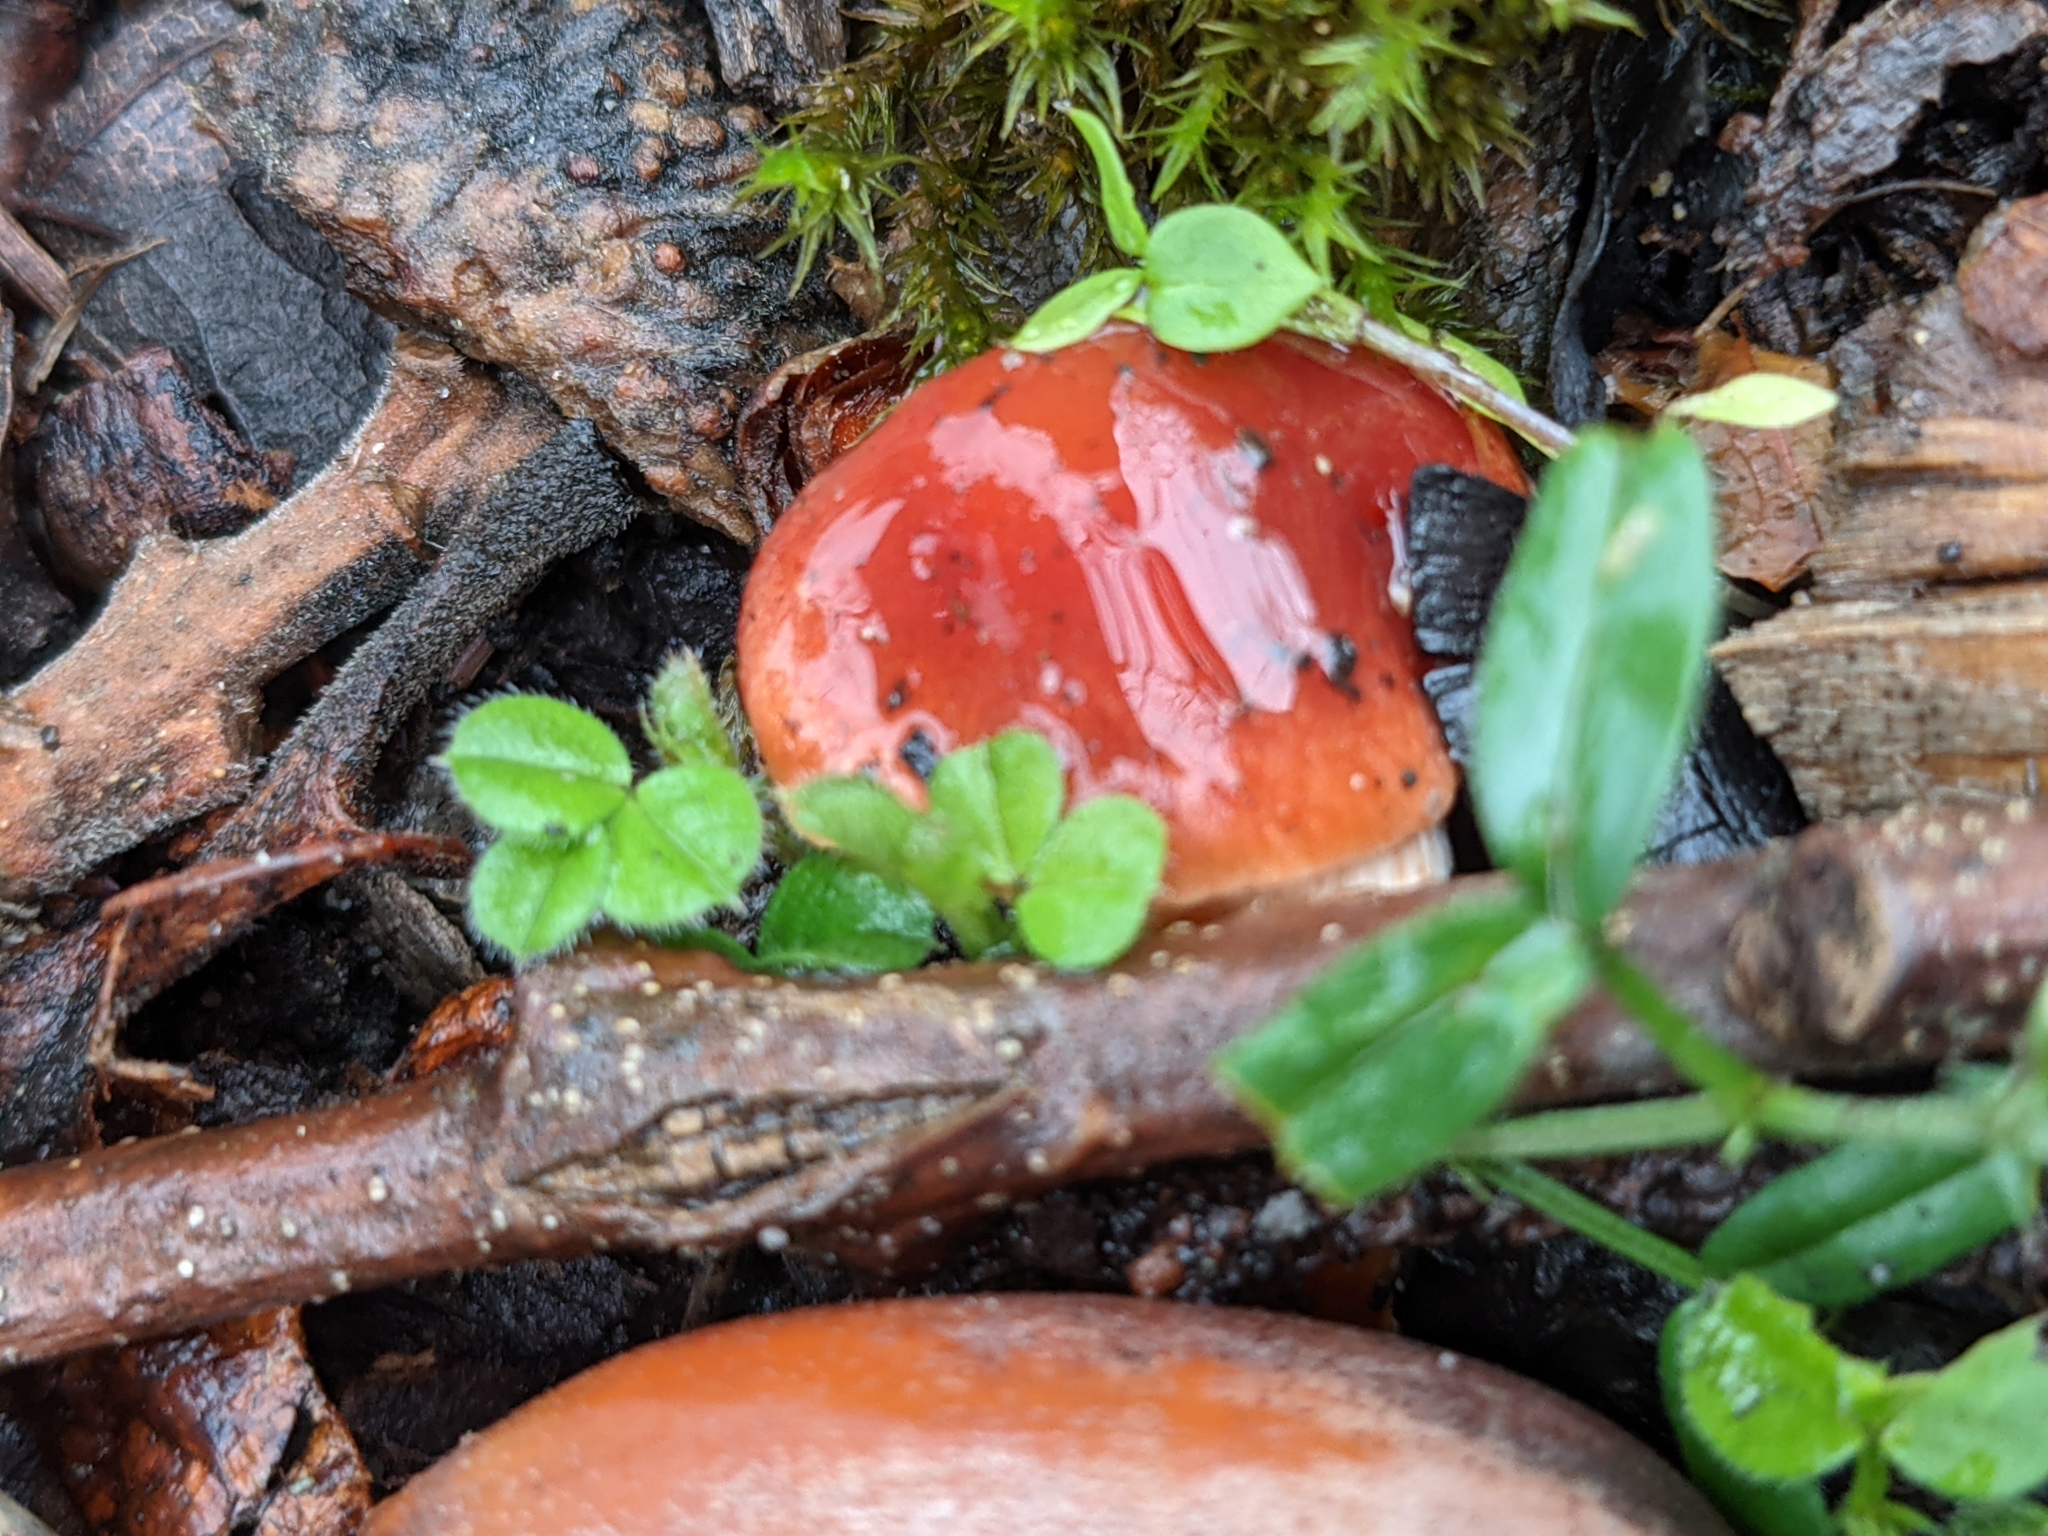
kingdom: Fungi
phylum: Basidiomycota
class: Agaricomycetes
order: Agaricales
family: Strophariaceae
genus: Leratiomyces
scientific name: Leratiomyces ceres
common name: Redlead roundhead
